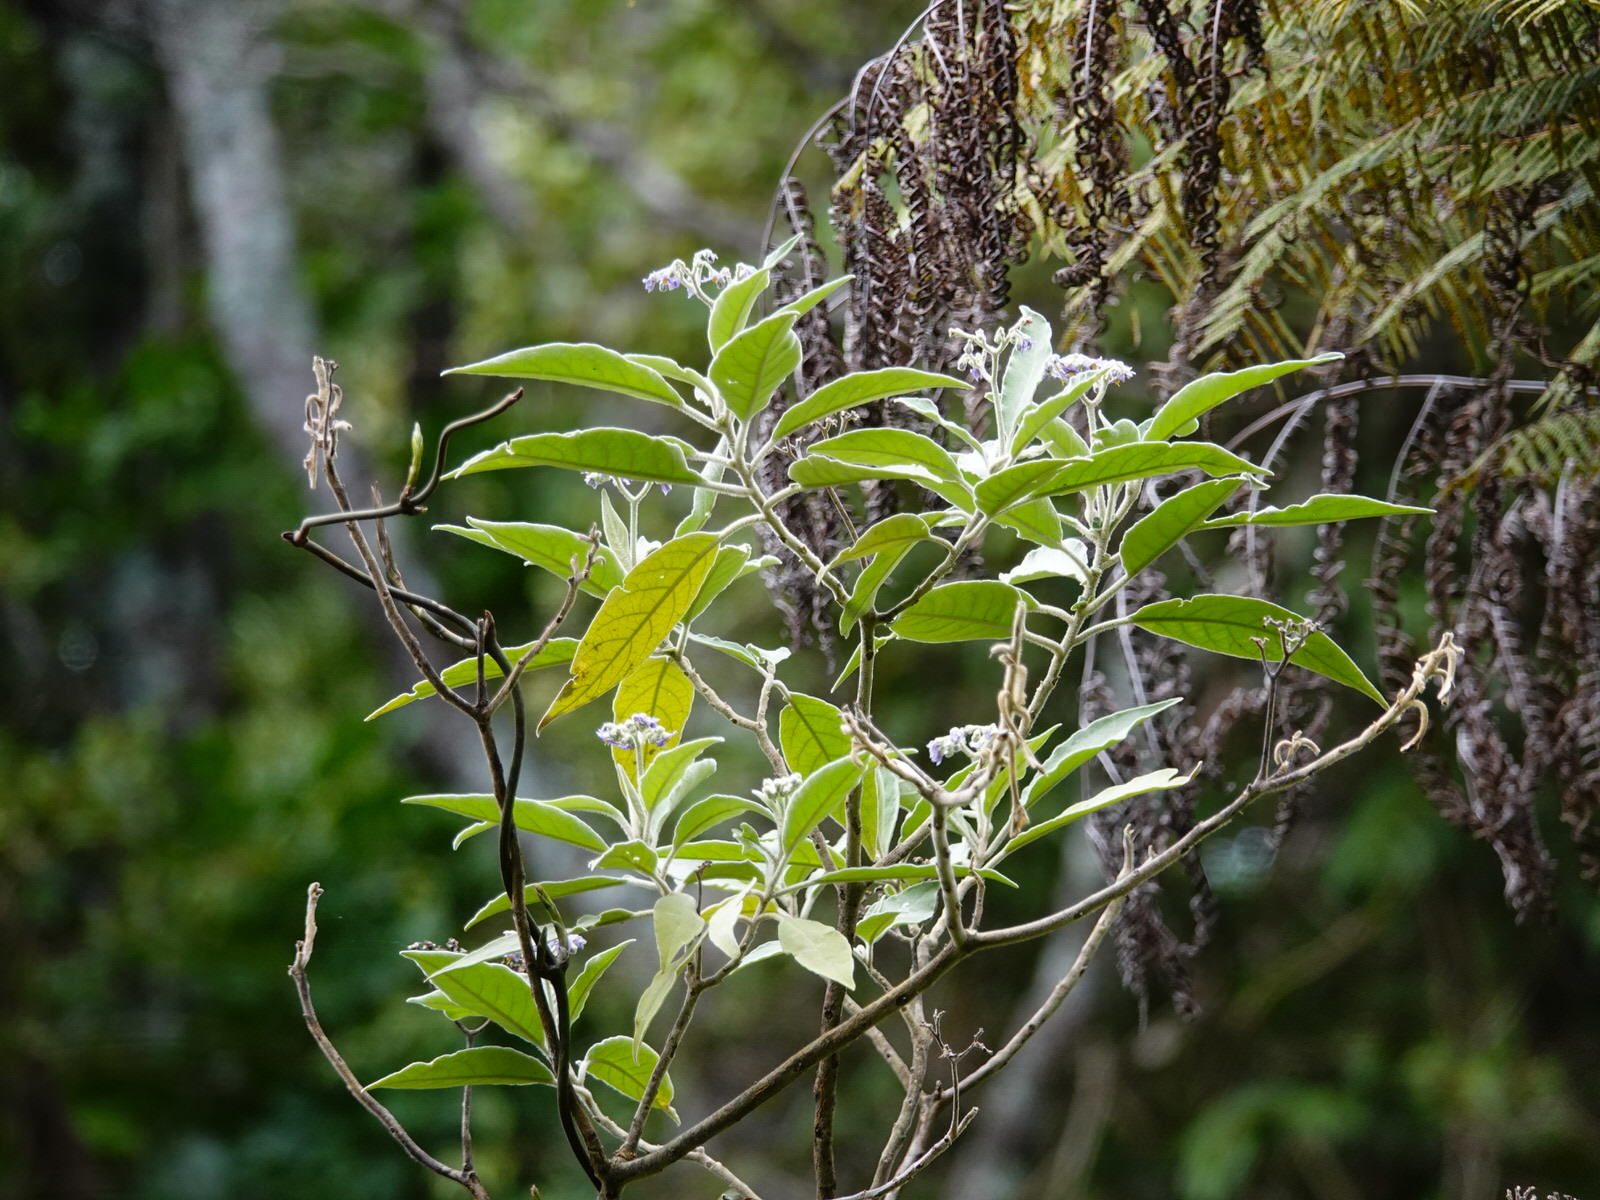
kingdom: Plantae
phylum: Tracheophyta
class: Magnoliopsida
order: Solanales
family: Solanaceae
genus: Solanum
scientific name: Solanum mauritianum
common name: Earleaf nightshade
